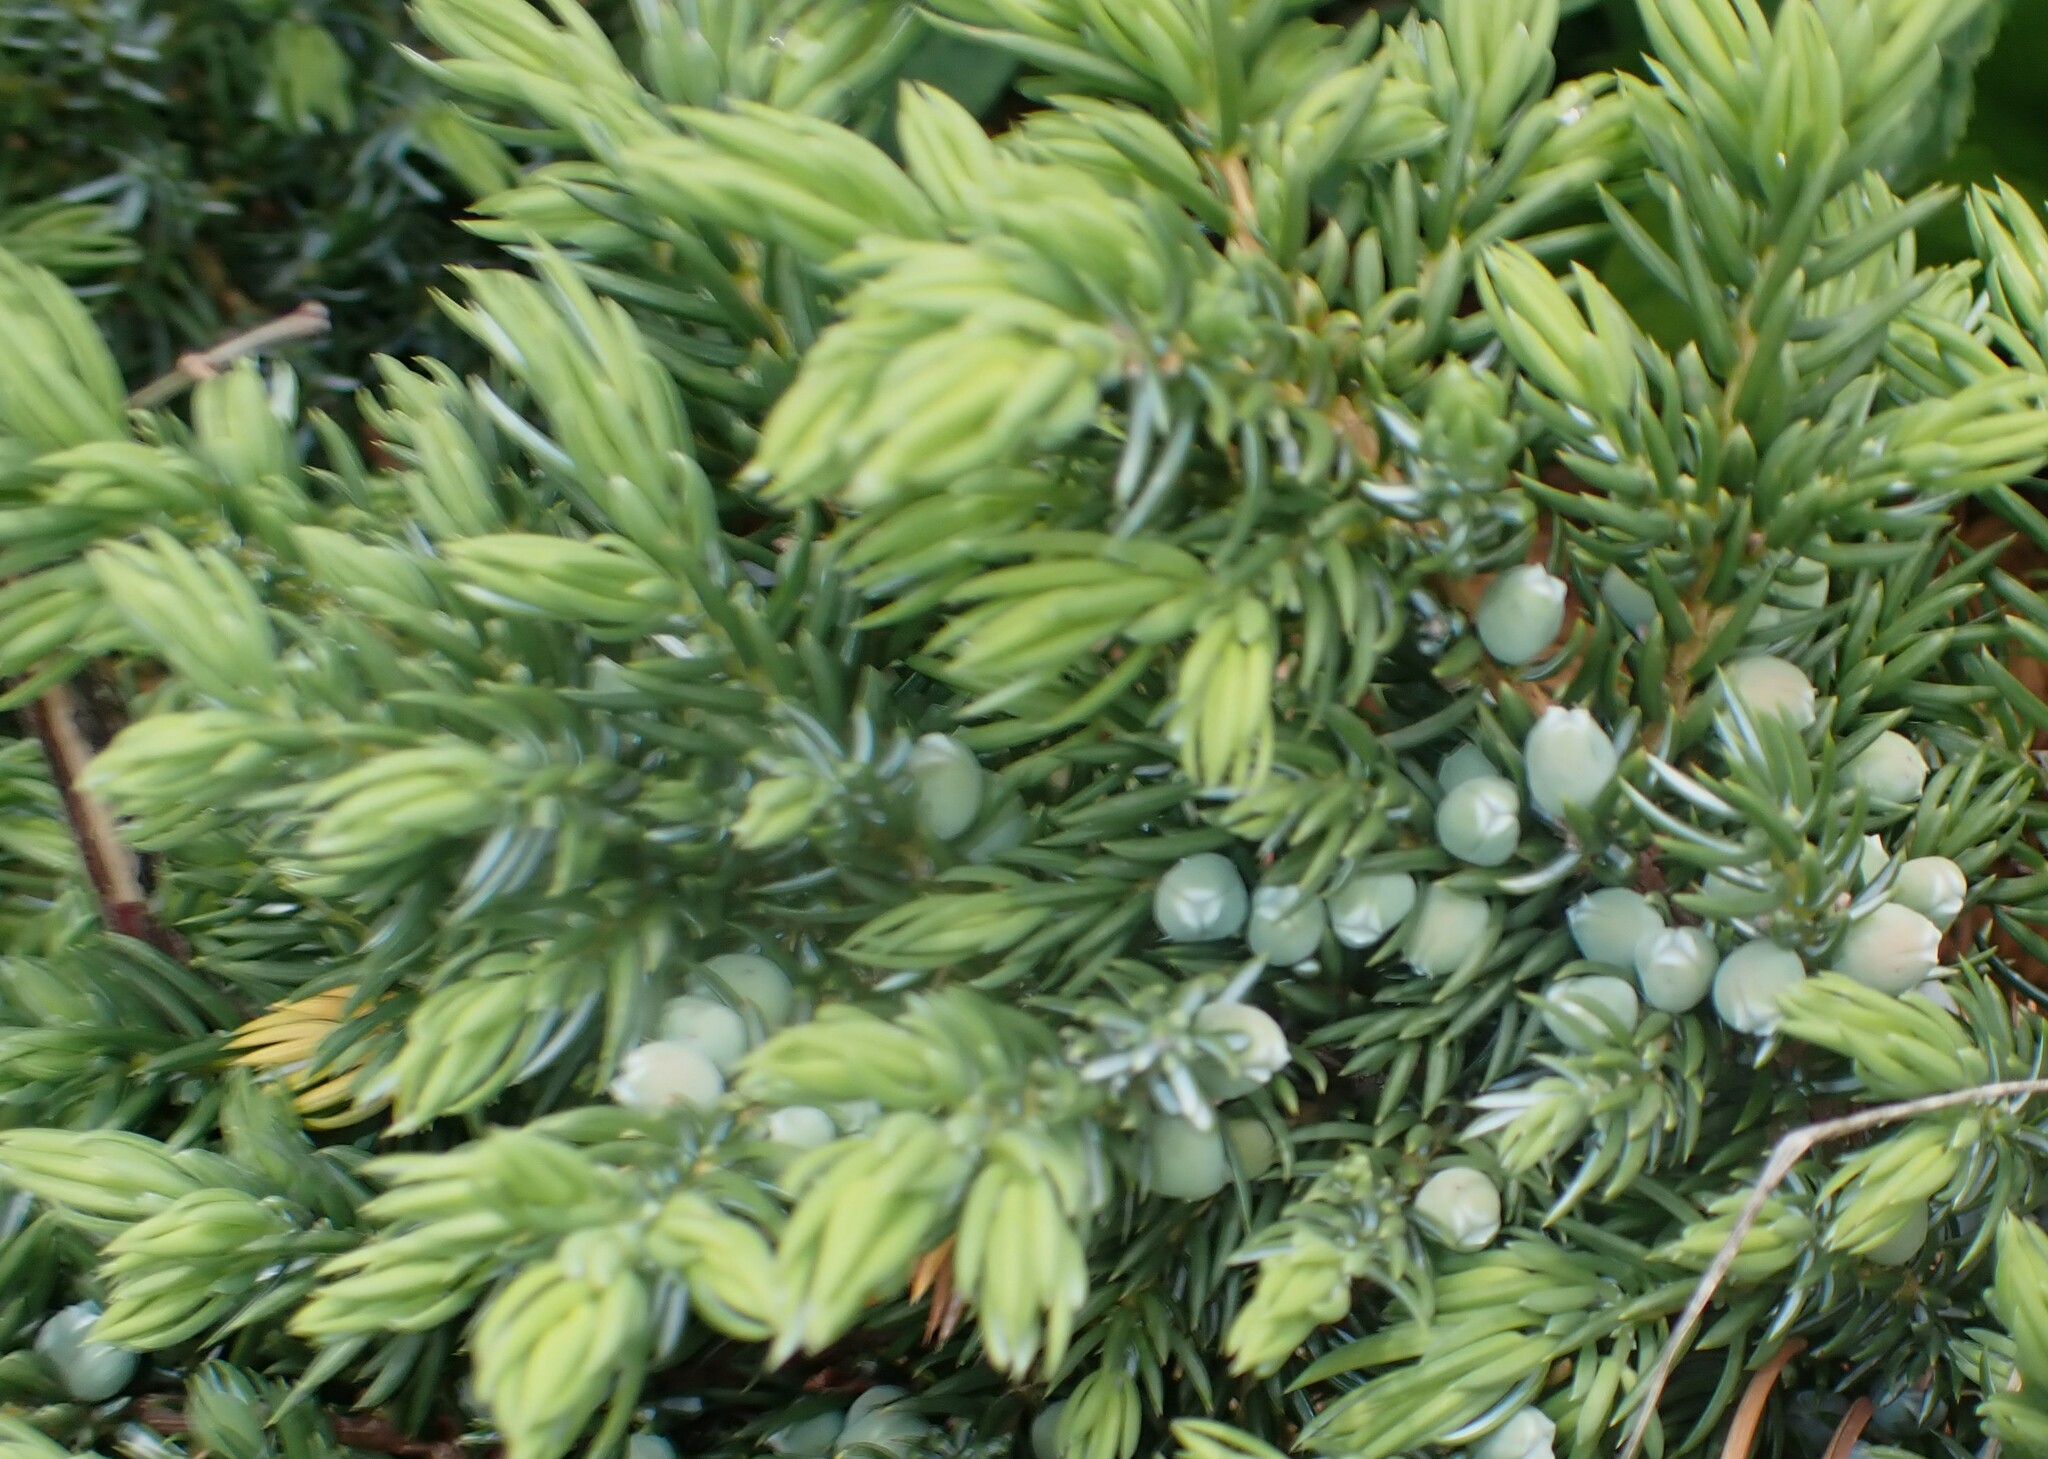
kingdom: Plantae
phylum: Tracheophyta
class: Pinopsida
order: Pinales
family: Cupressaceae
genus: Juniperus
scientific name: Juniperus communis
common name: Common juniper
